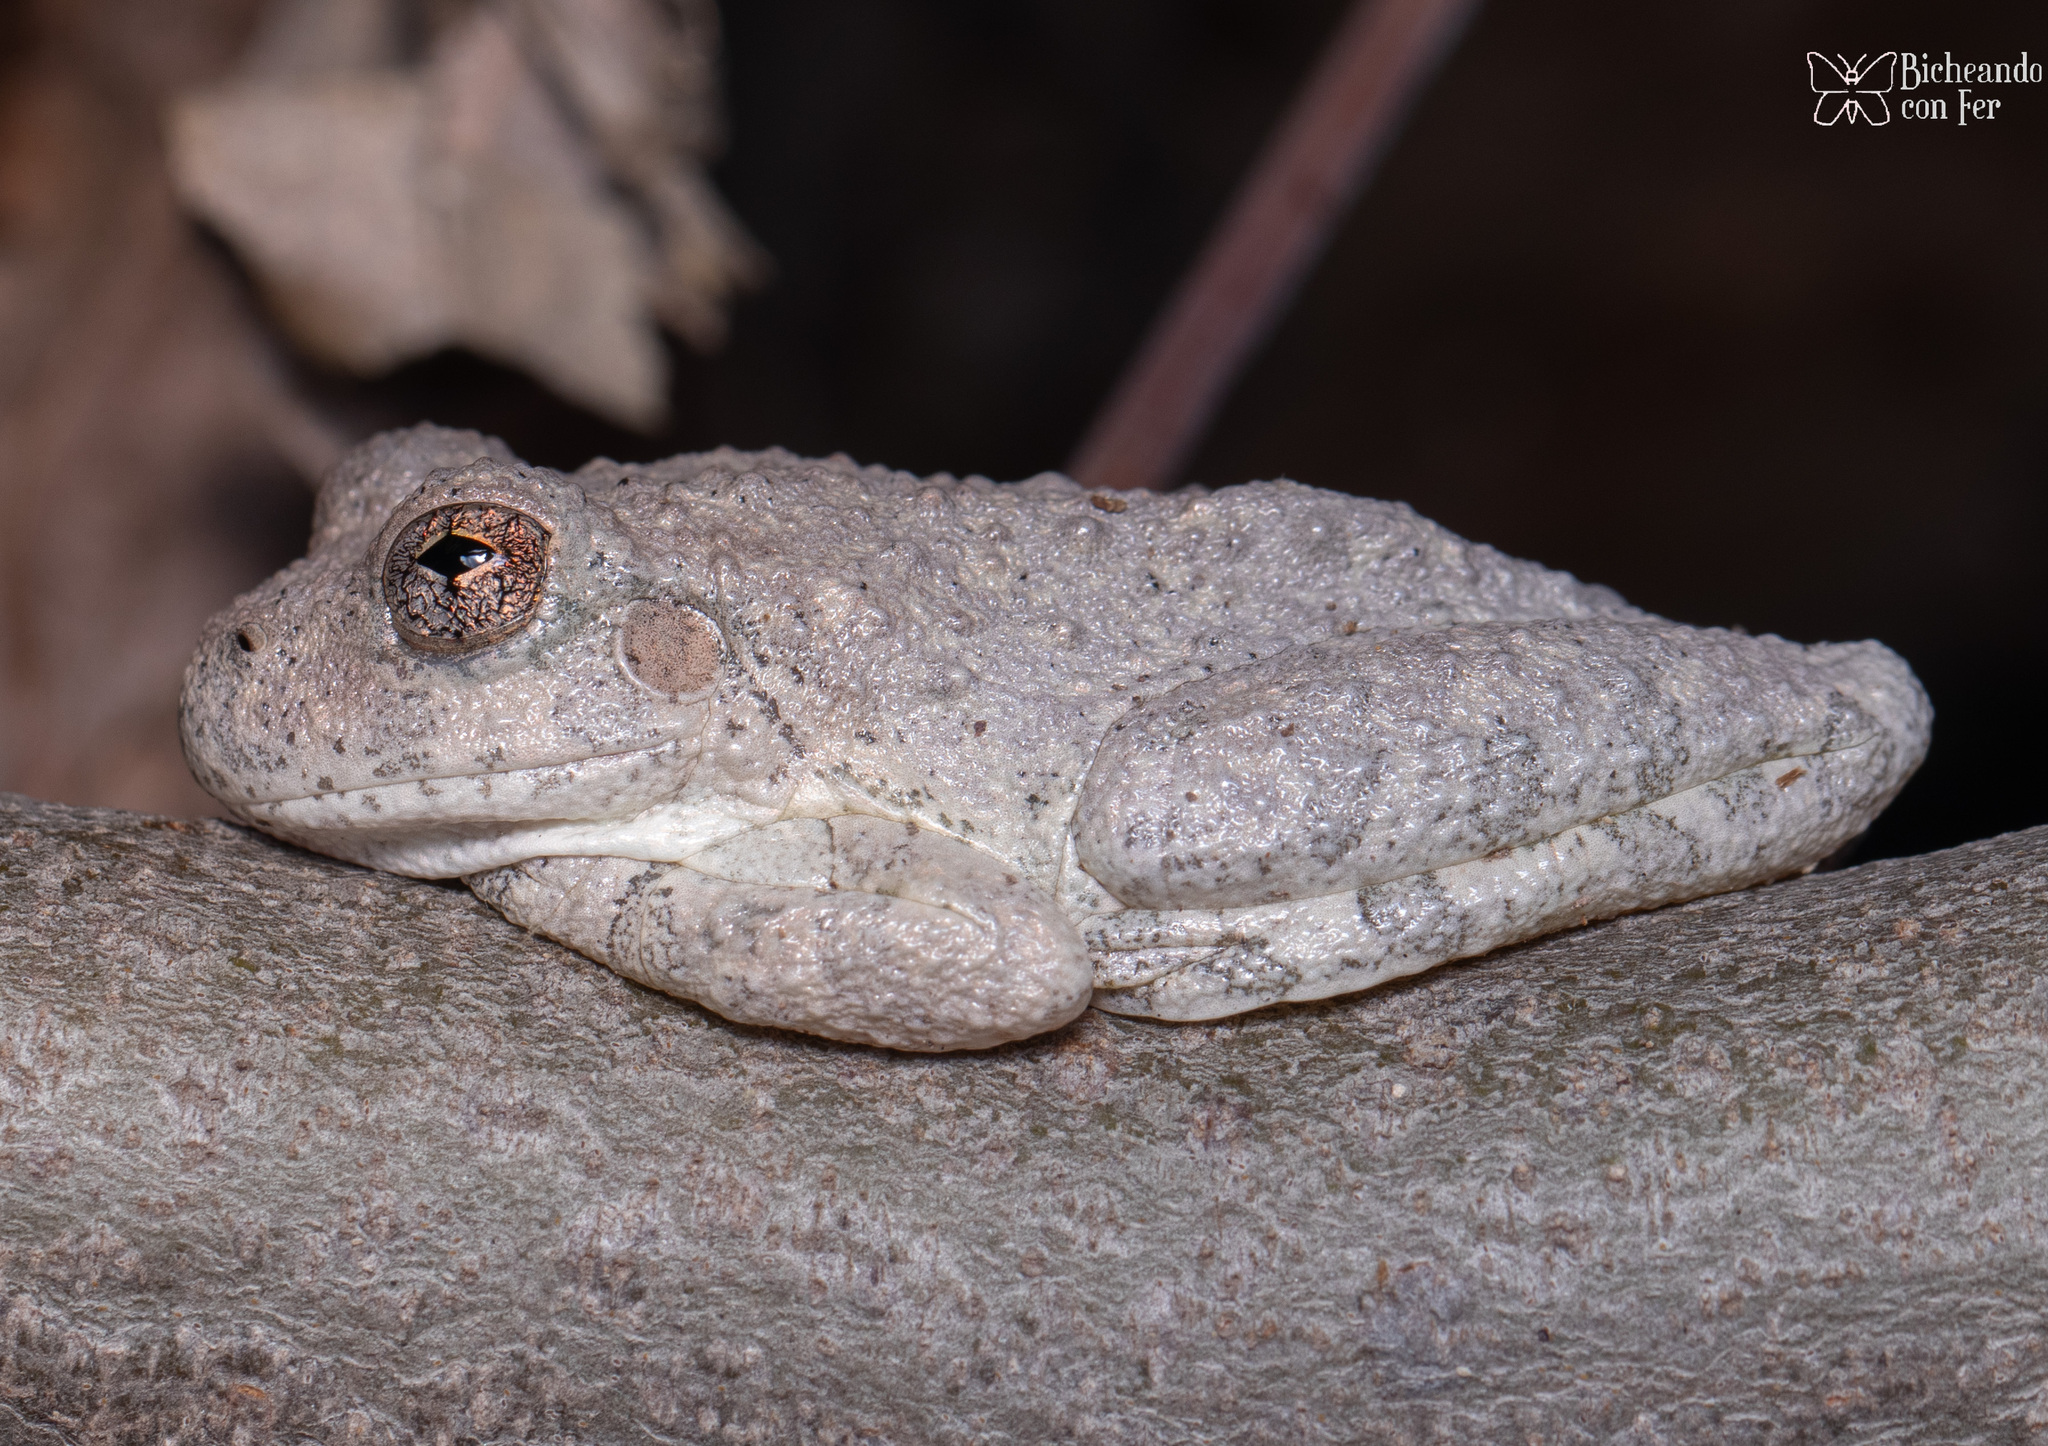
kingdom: Animalia
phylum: Chordata
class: Amphibia
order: Anura
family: Hylidae
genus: Dryophytes
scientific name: Dryophytes arenicolor
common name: Canyon treefrog
